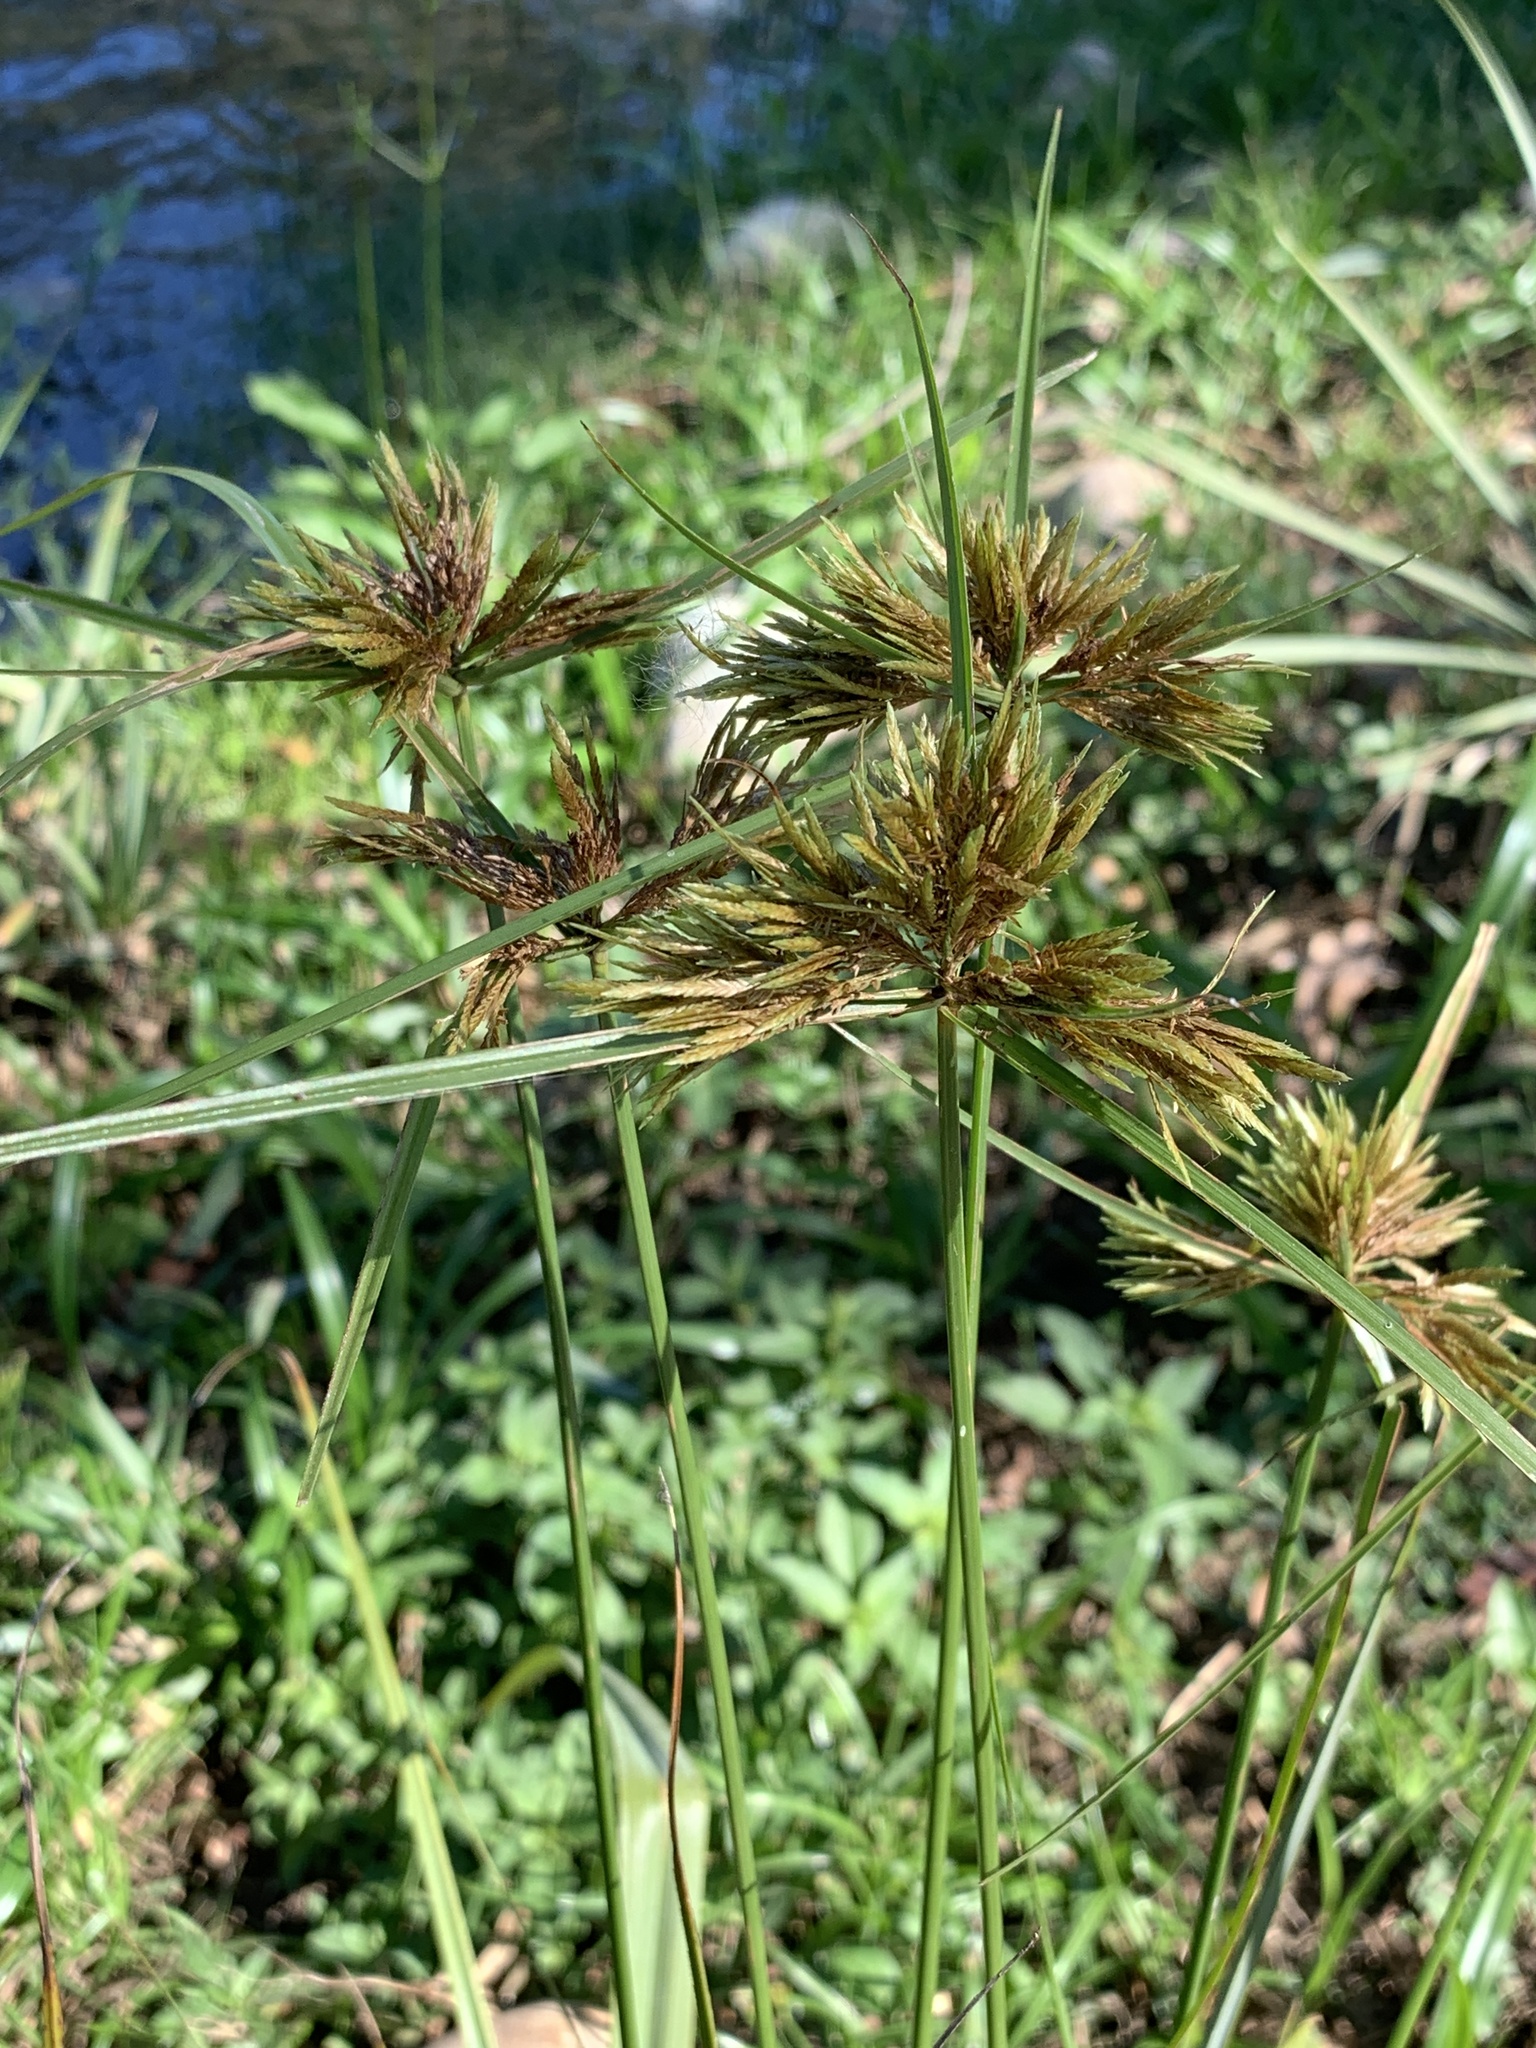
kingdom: Plantae
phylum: Tracheophyta
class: Liliopsida
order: Poales
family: Cyperaceae
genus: Cyperus
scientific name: Cyperus polystachyos
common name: Bunchy flat sedge
